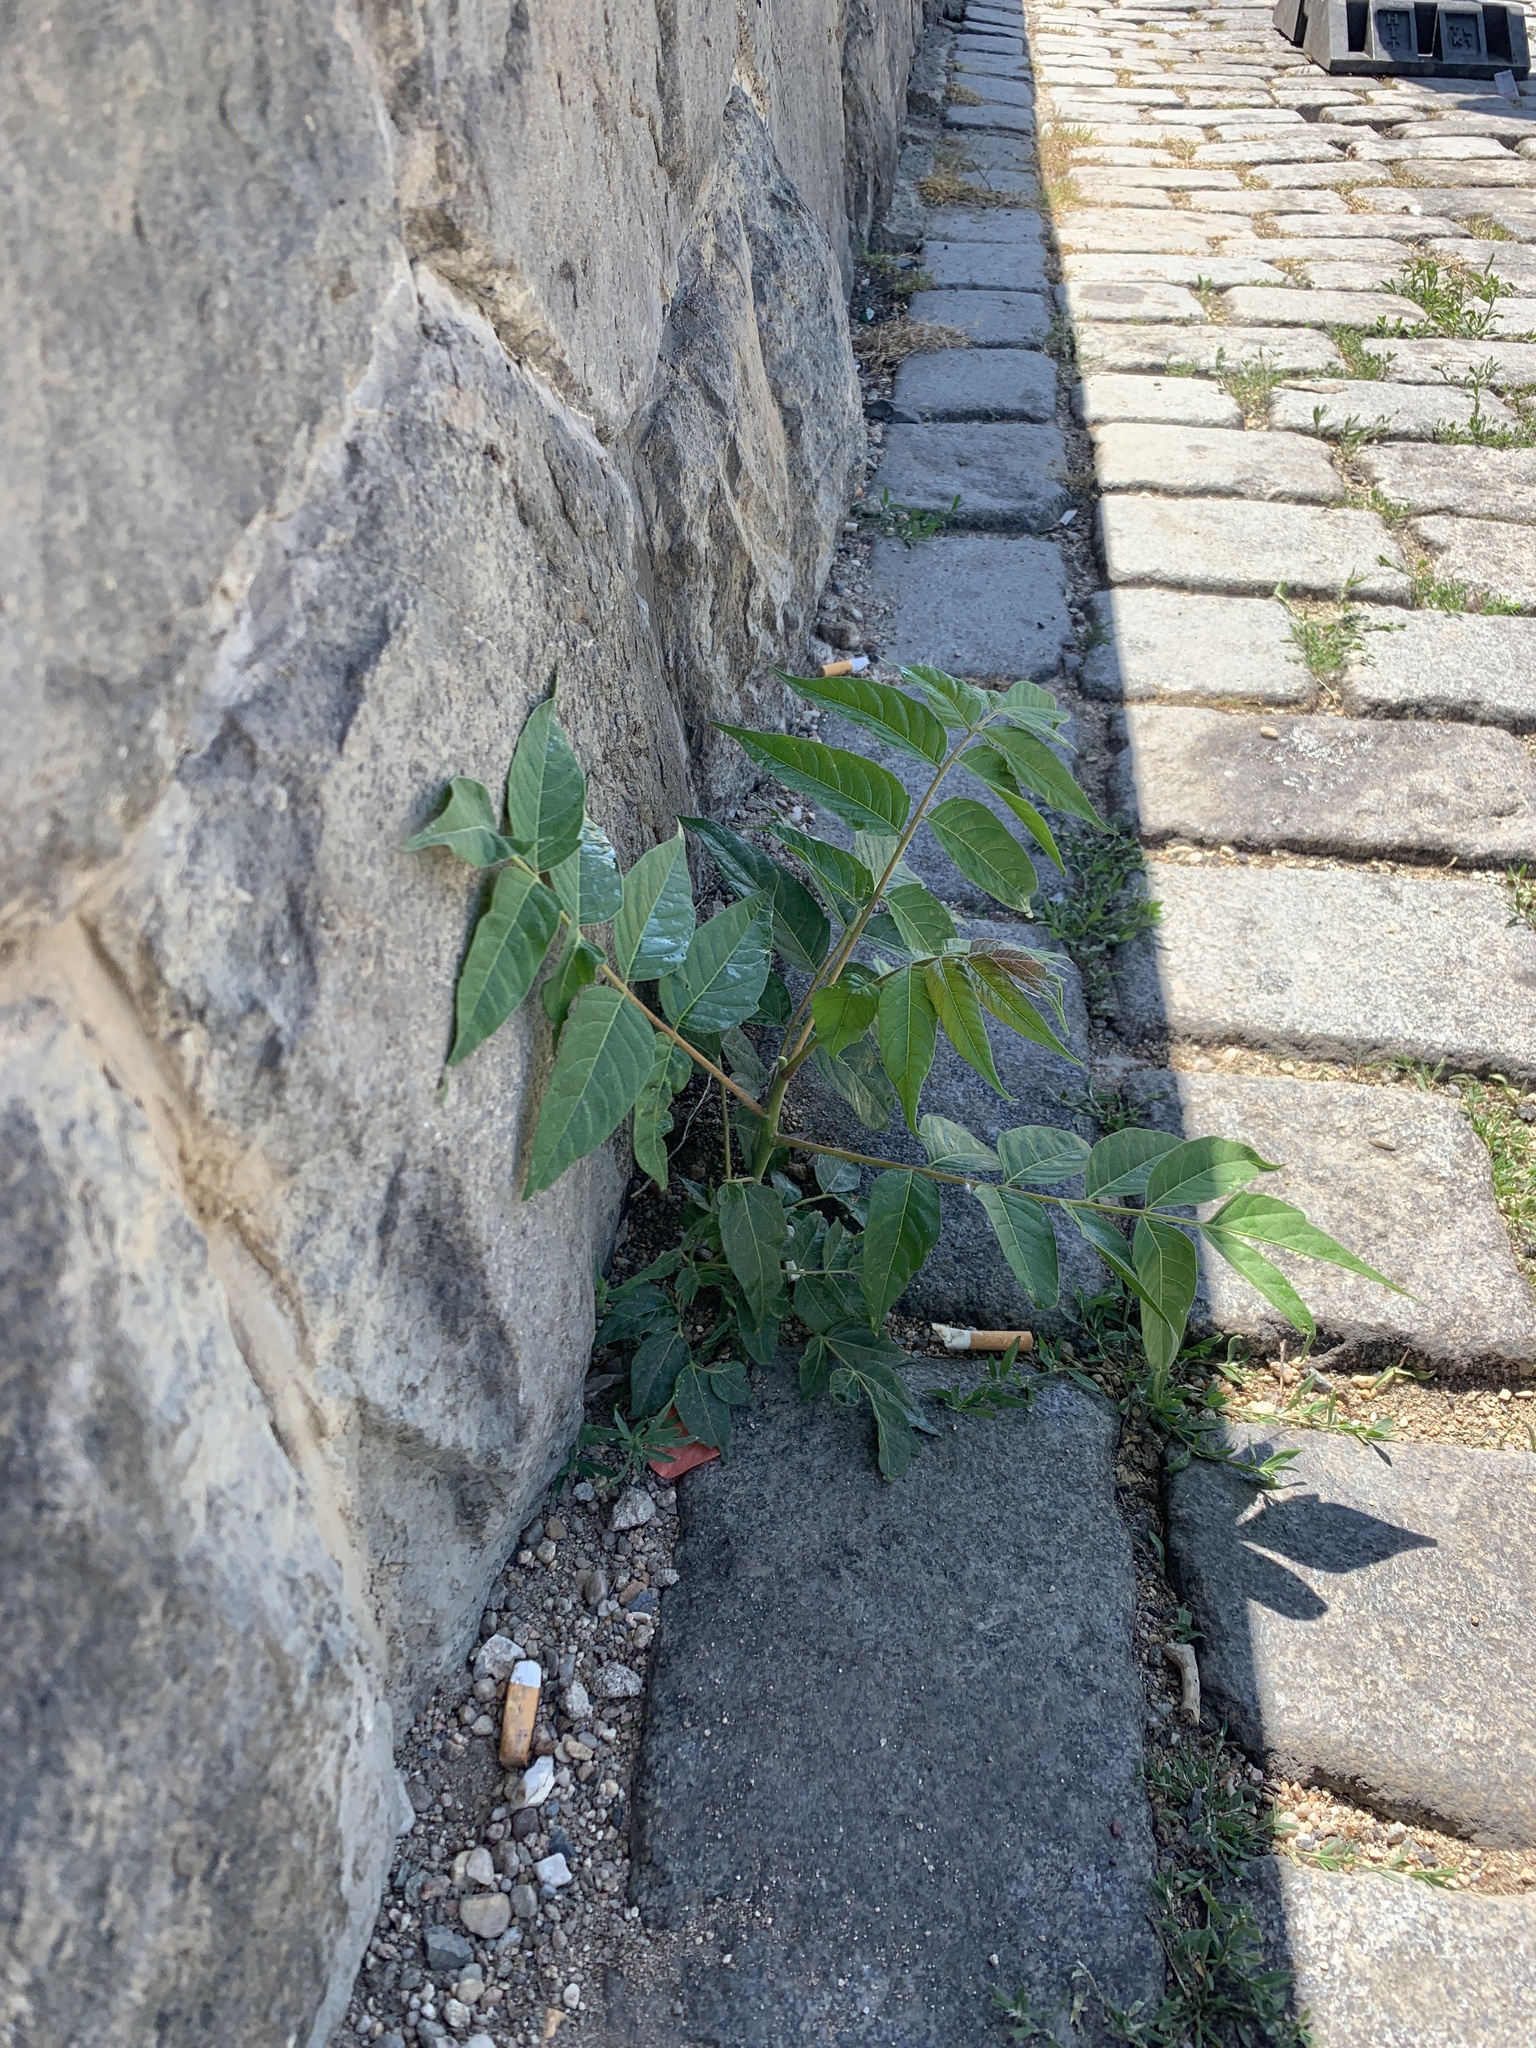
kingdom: Plantae
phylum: Tracheophyta
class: Magnoliopsida
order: Sapindales
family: Simaroubaceae
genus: Ailanthus
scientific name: Ailanthus altissima
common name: Tree-of-heaven
